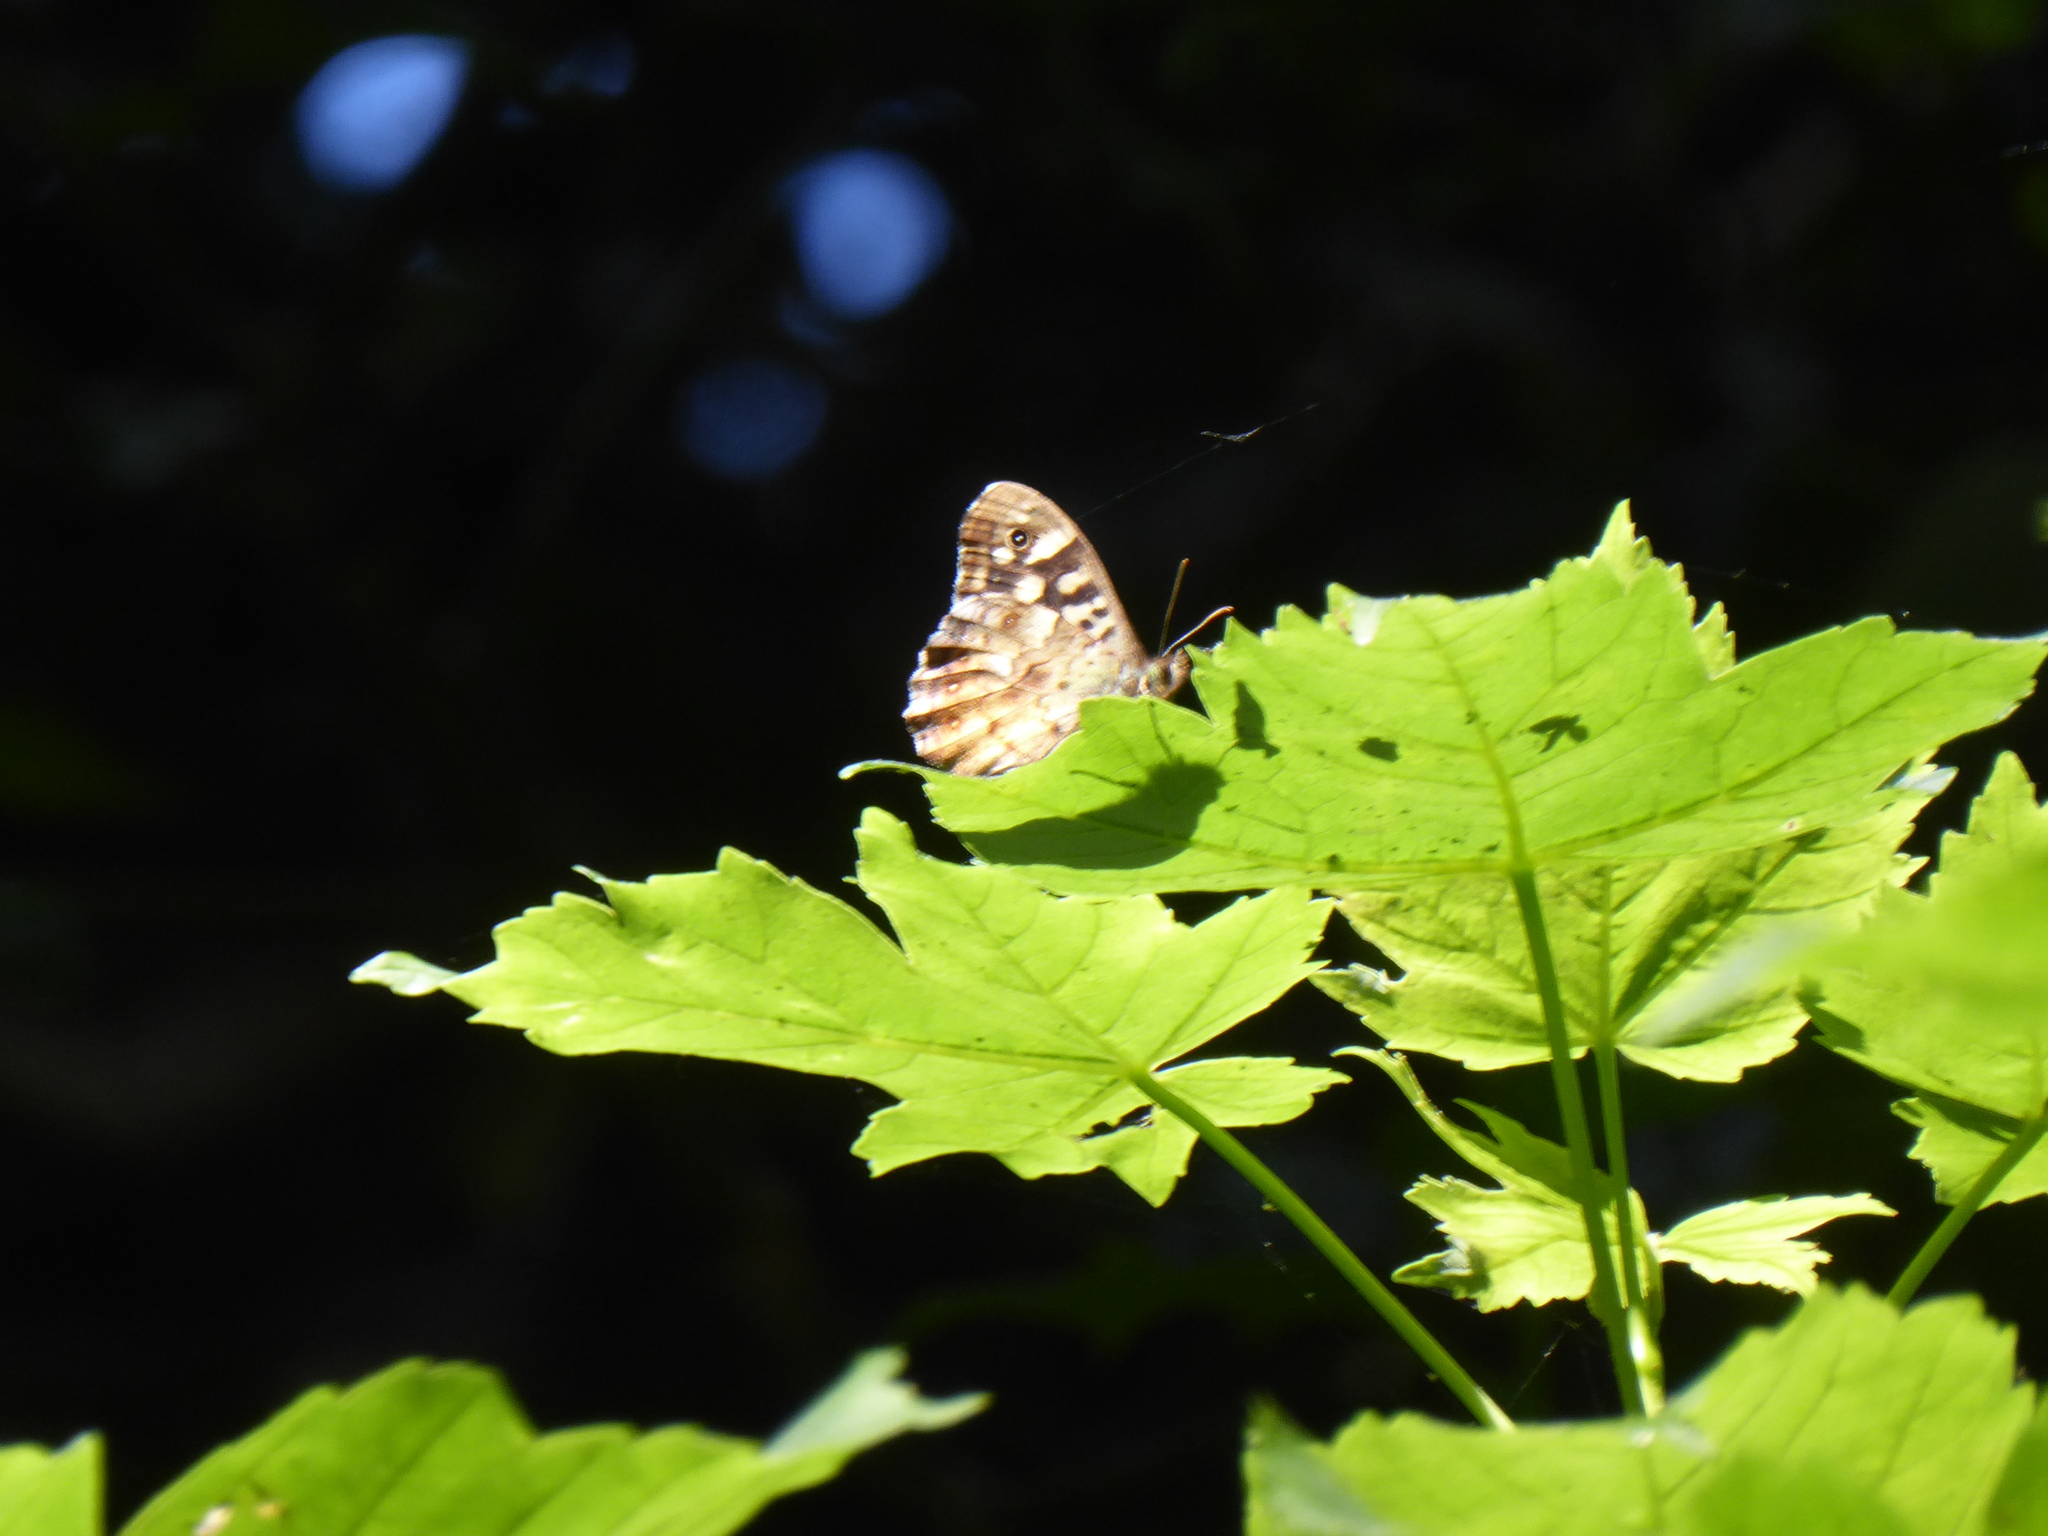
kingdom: Animalia
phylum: Arthropoda
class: Insecta
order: Lepidoptera
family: Nymphalidae
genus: Pararge
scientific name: Pararge aegeria
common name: Speckled wood
